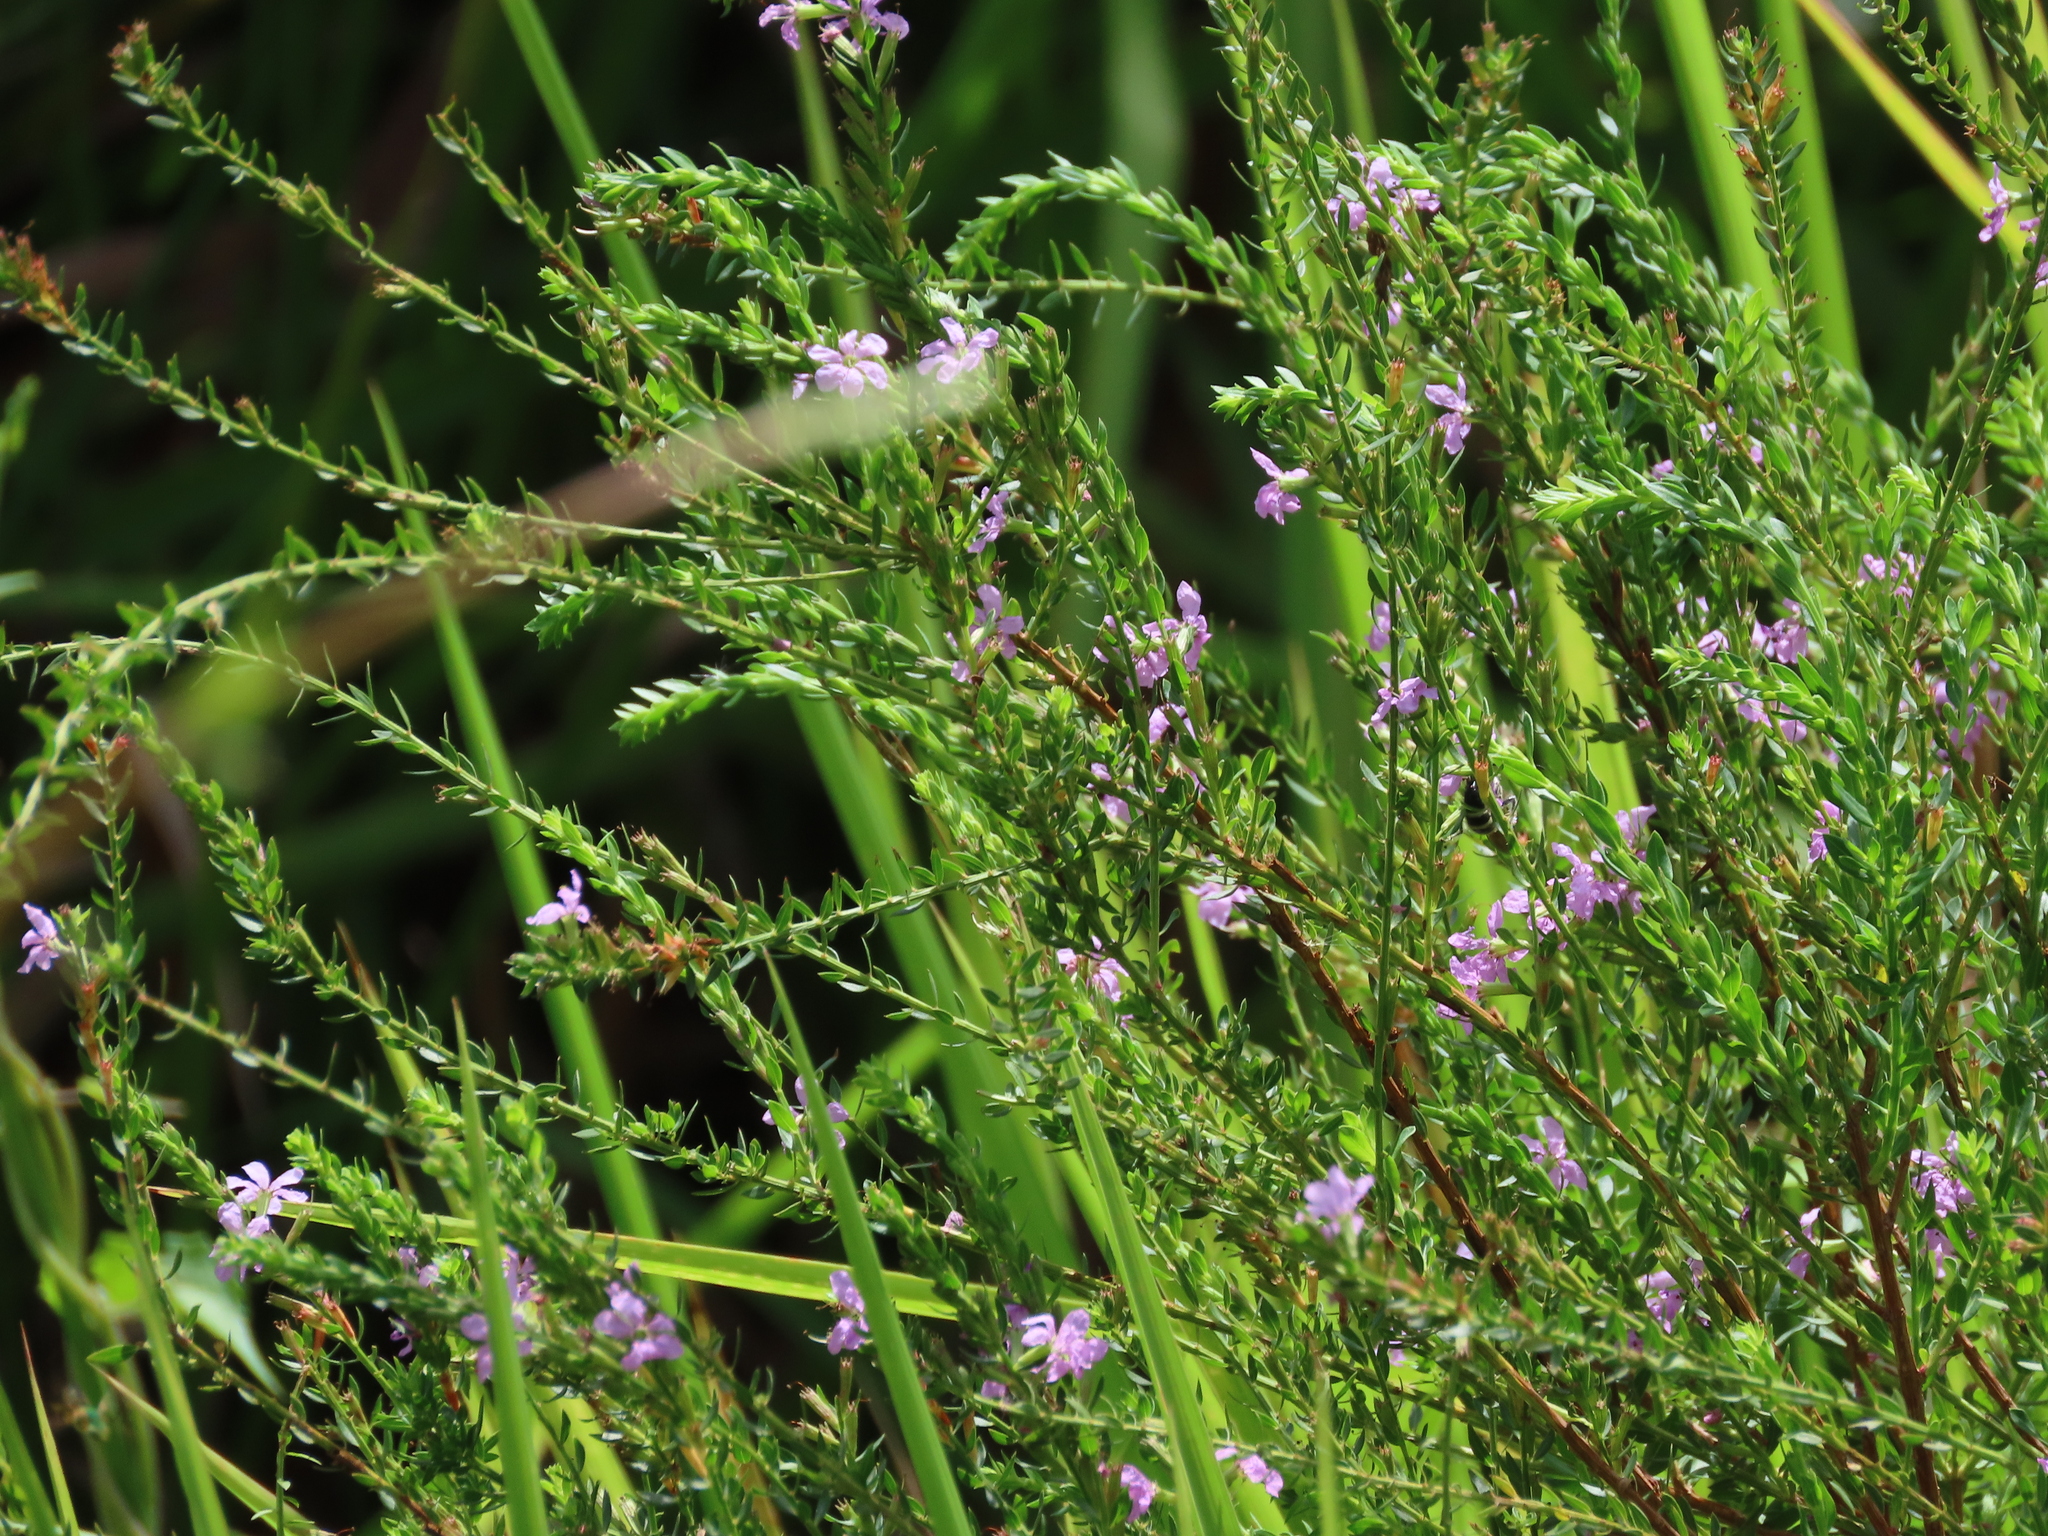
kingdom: Plantae
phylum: Tracheophyta
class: Magnoliopsida
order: Myrtales
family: Lythraceae
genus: Lythrum
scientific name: Lythrum alatum
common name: Winged loosestrife
